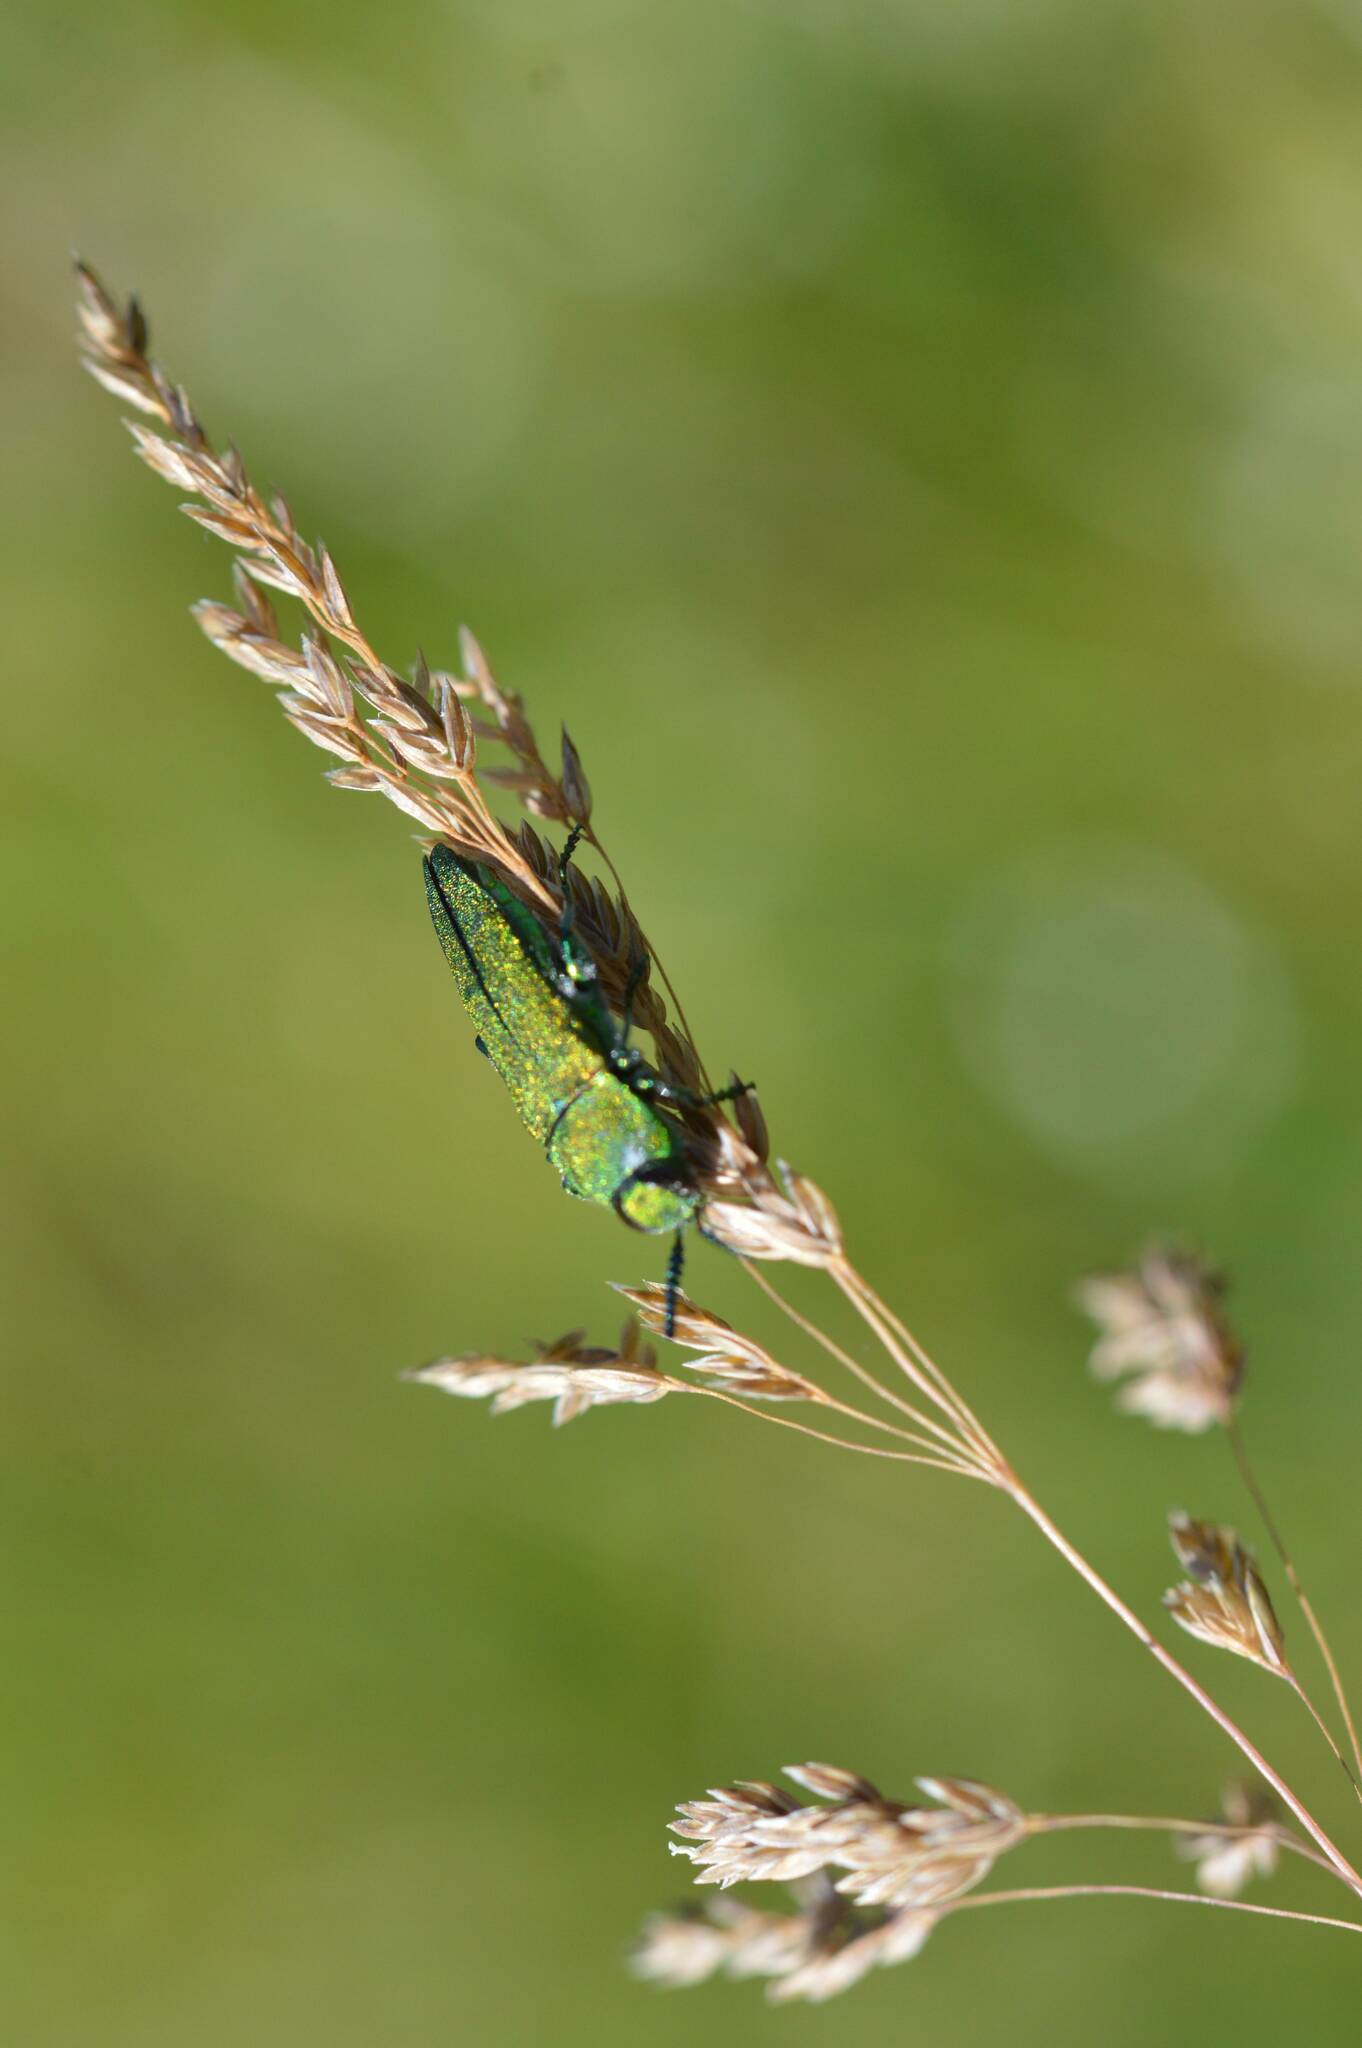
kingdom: Animalia
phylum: Arthropoda
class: Insecta
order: Coleoptera
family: Buprestidae
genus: Anthaxia
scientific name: Anthaxia hungarica
